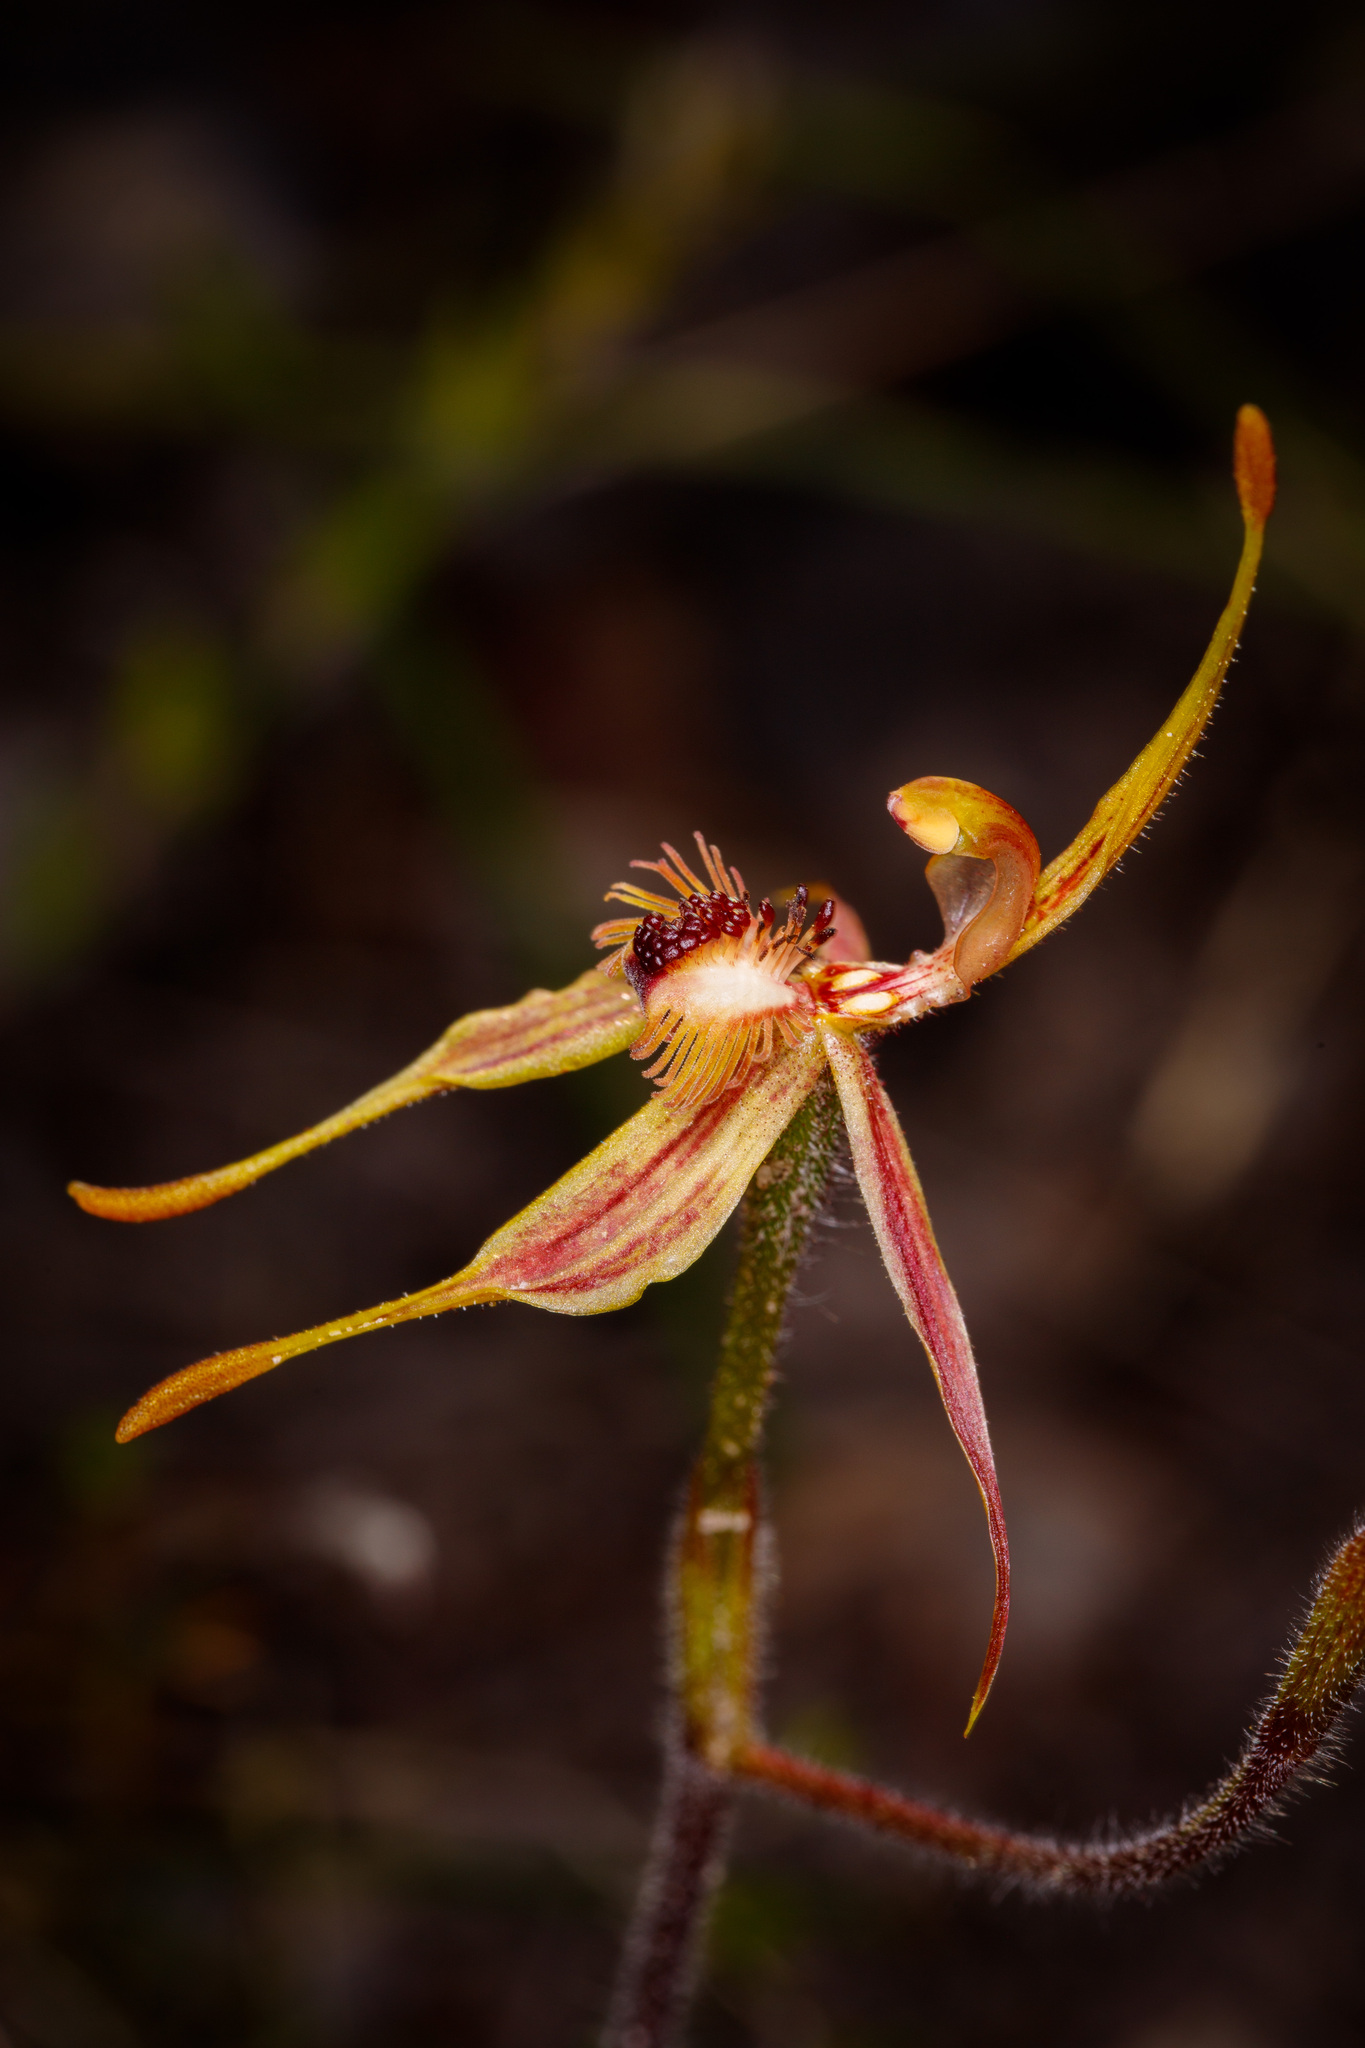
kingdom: Plantae
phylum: Tracheophyta
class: Liliopsida
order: Asparagales
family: Orchidaceae
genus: Caladenia
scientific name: Caladenia plicata
